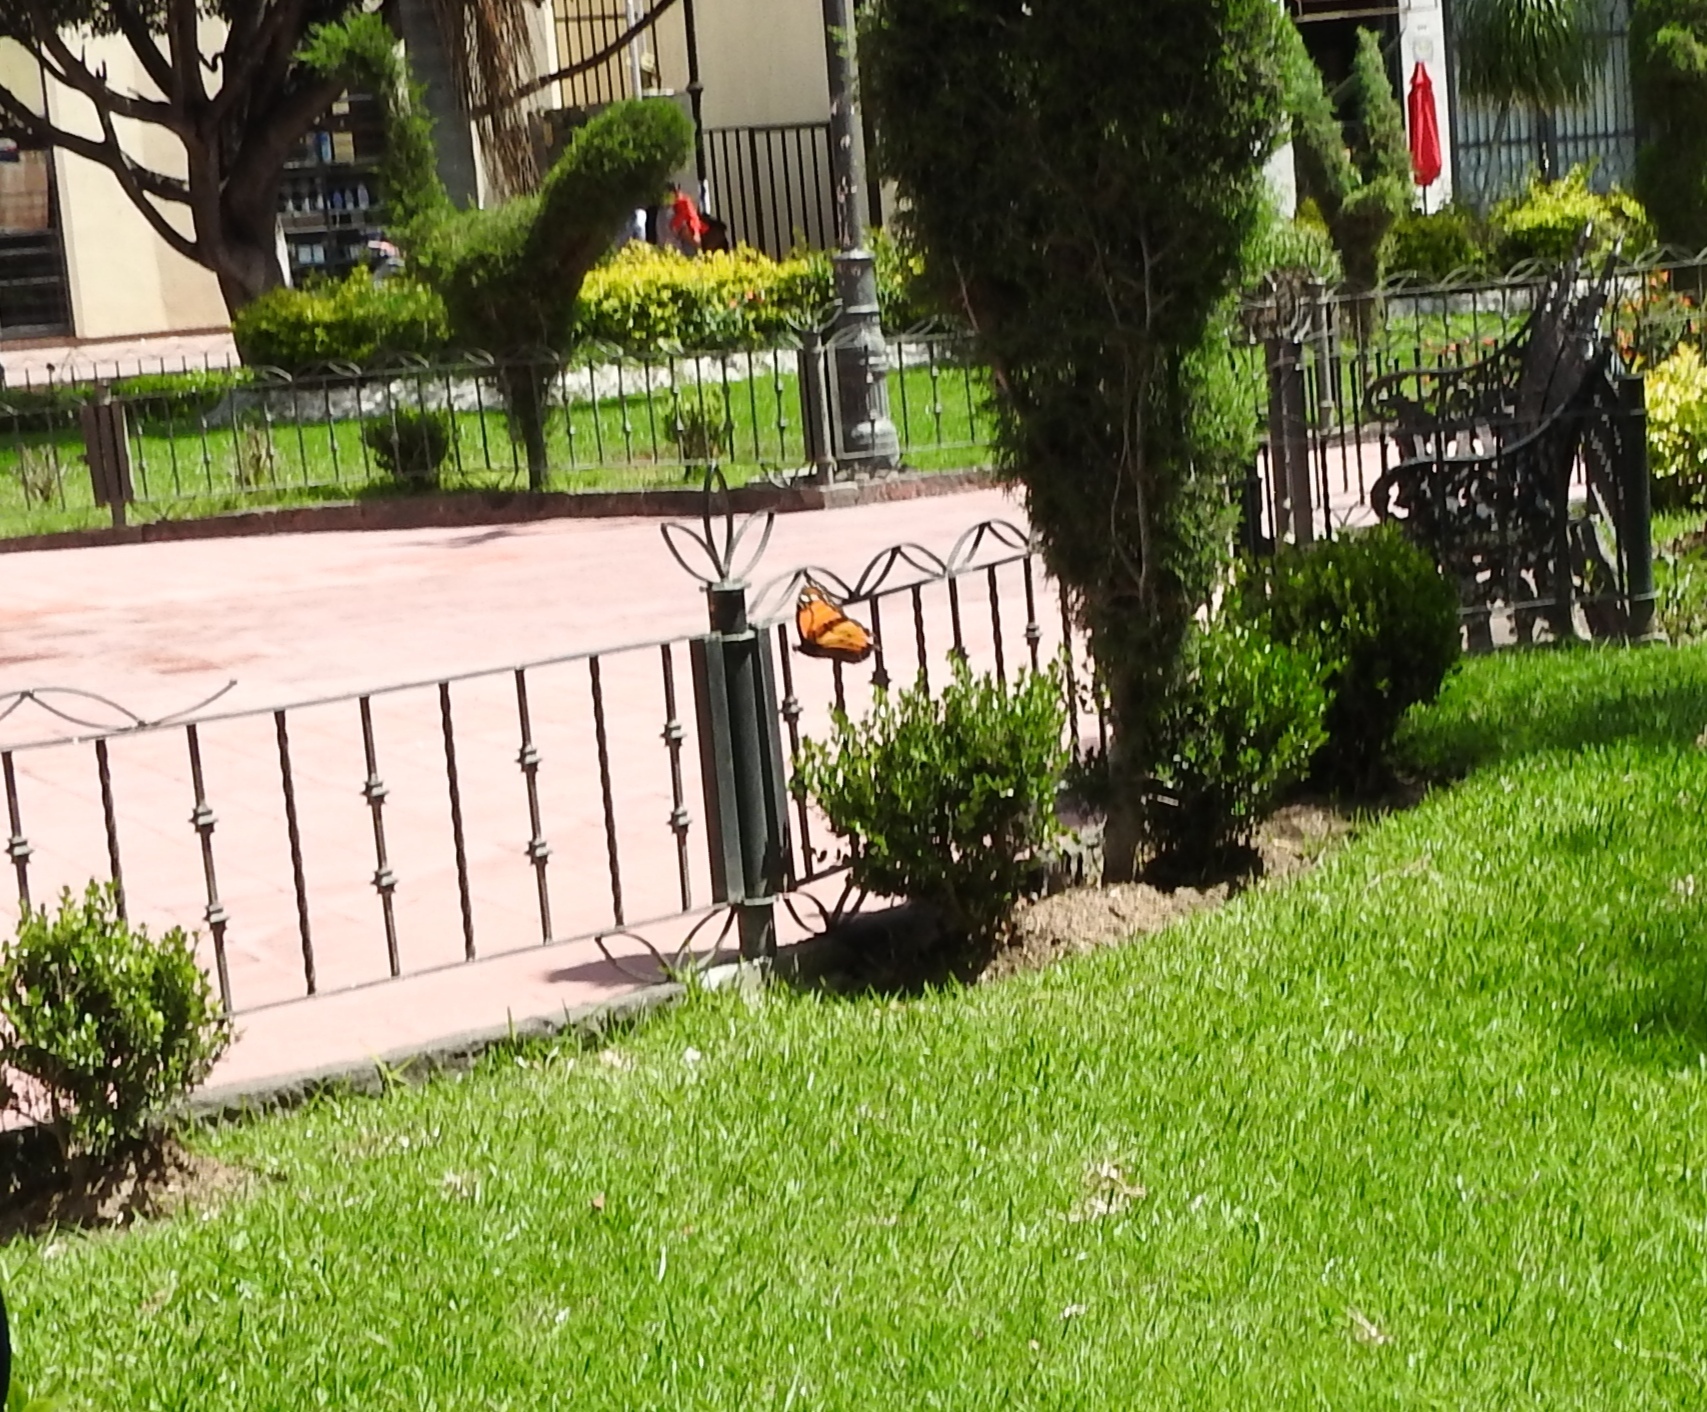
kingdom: Animalia
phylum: Arthropoda
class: Insecta
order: Lepidoptera
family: Nymphalidae
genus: Danaus
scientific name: Danaus plexippus
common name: Monarch
